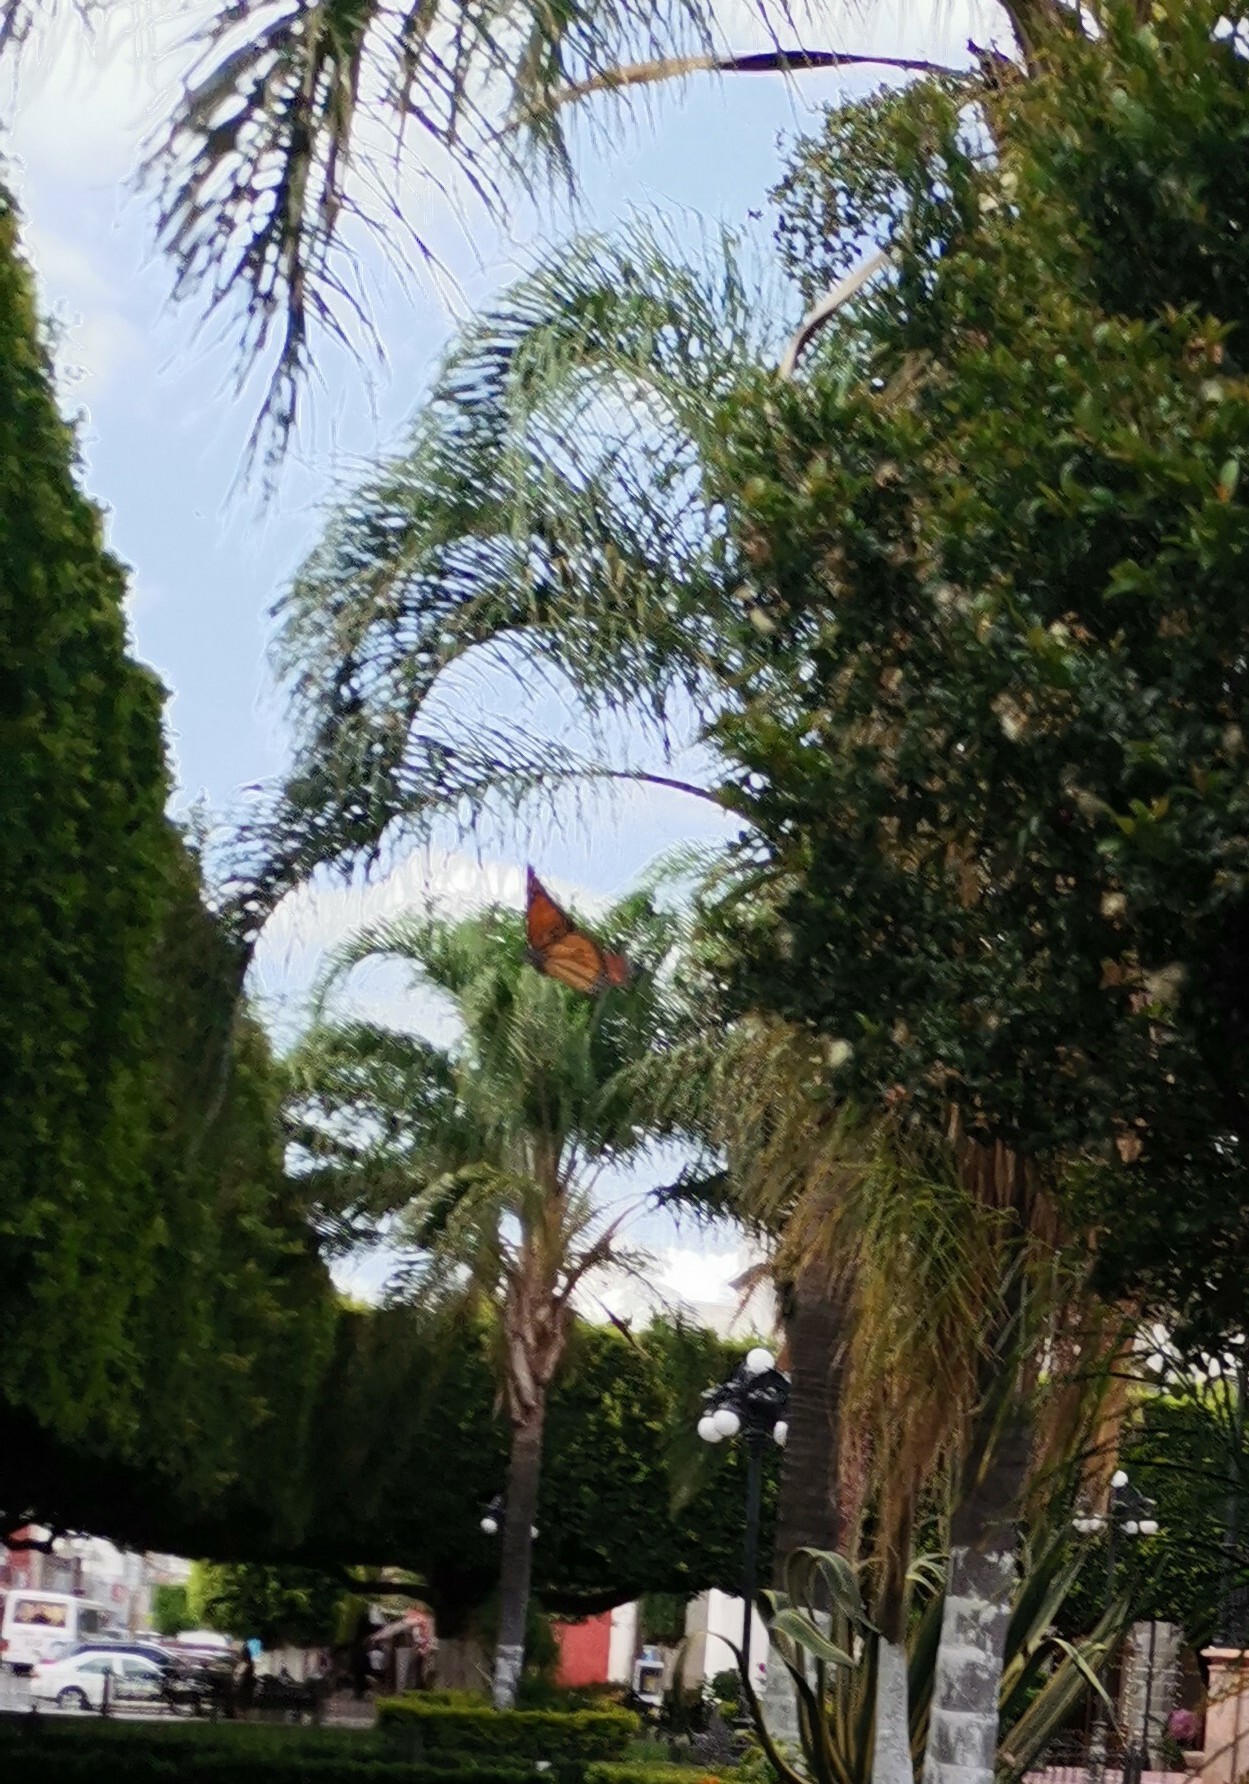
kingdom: Animalia
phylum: Arthropoda
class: Insecta
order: Lepidoptera
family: Nymphalidae
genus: Danaus
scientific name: Danaus plexippus
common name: Monarch
